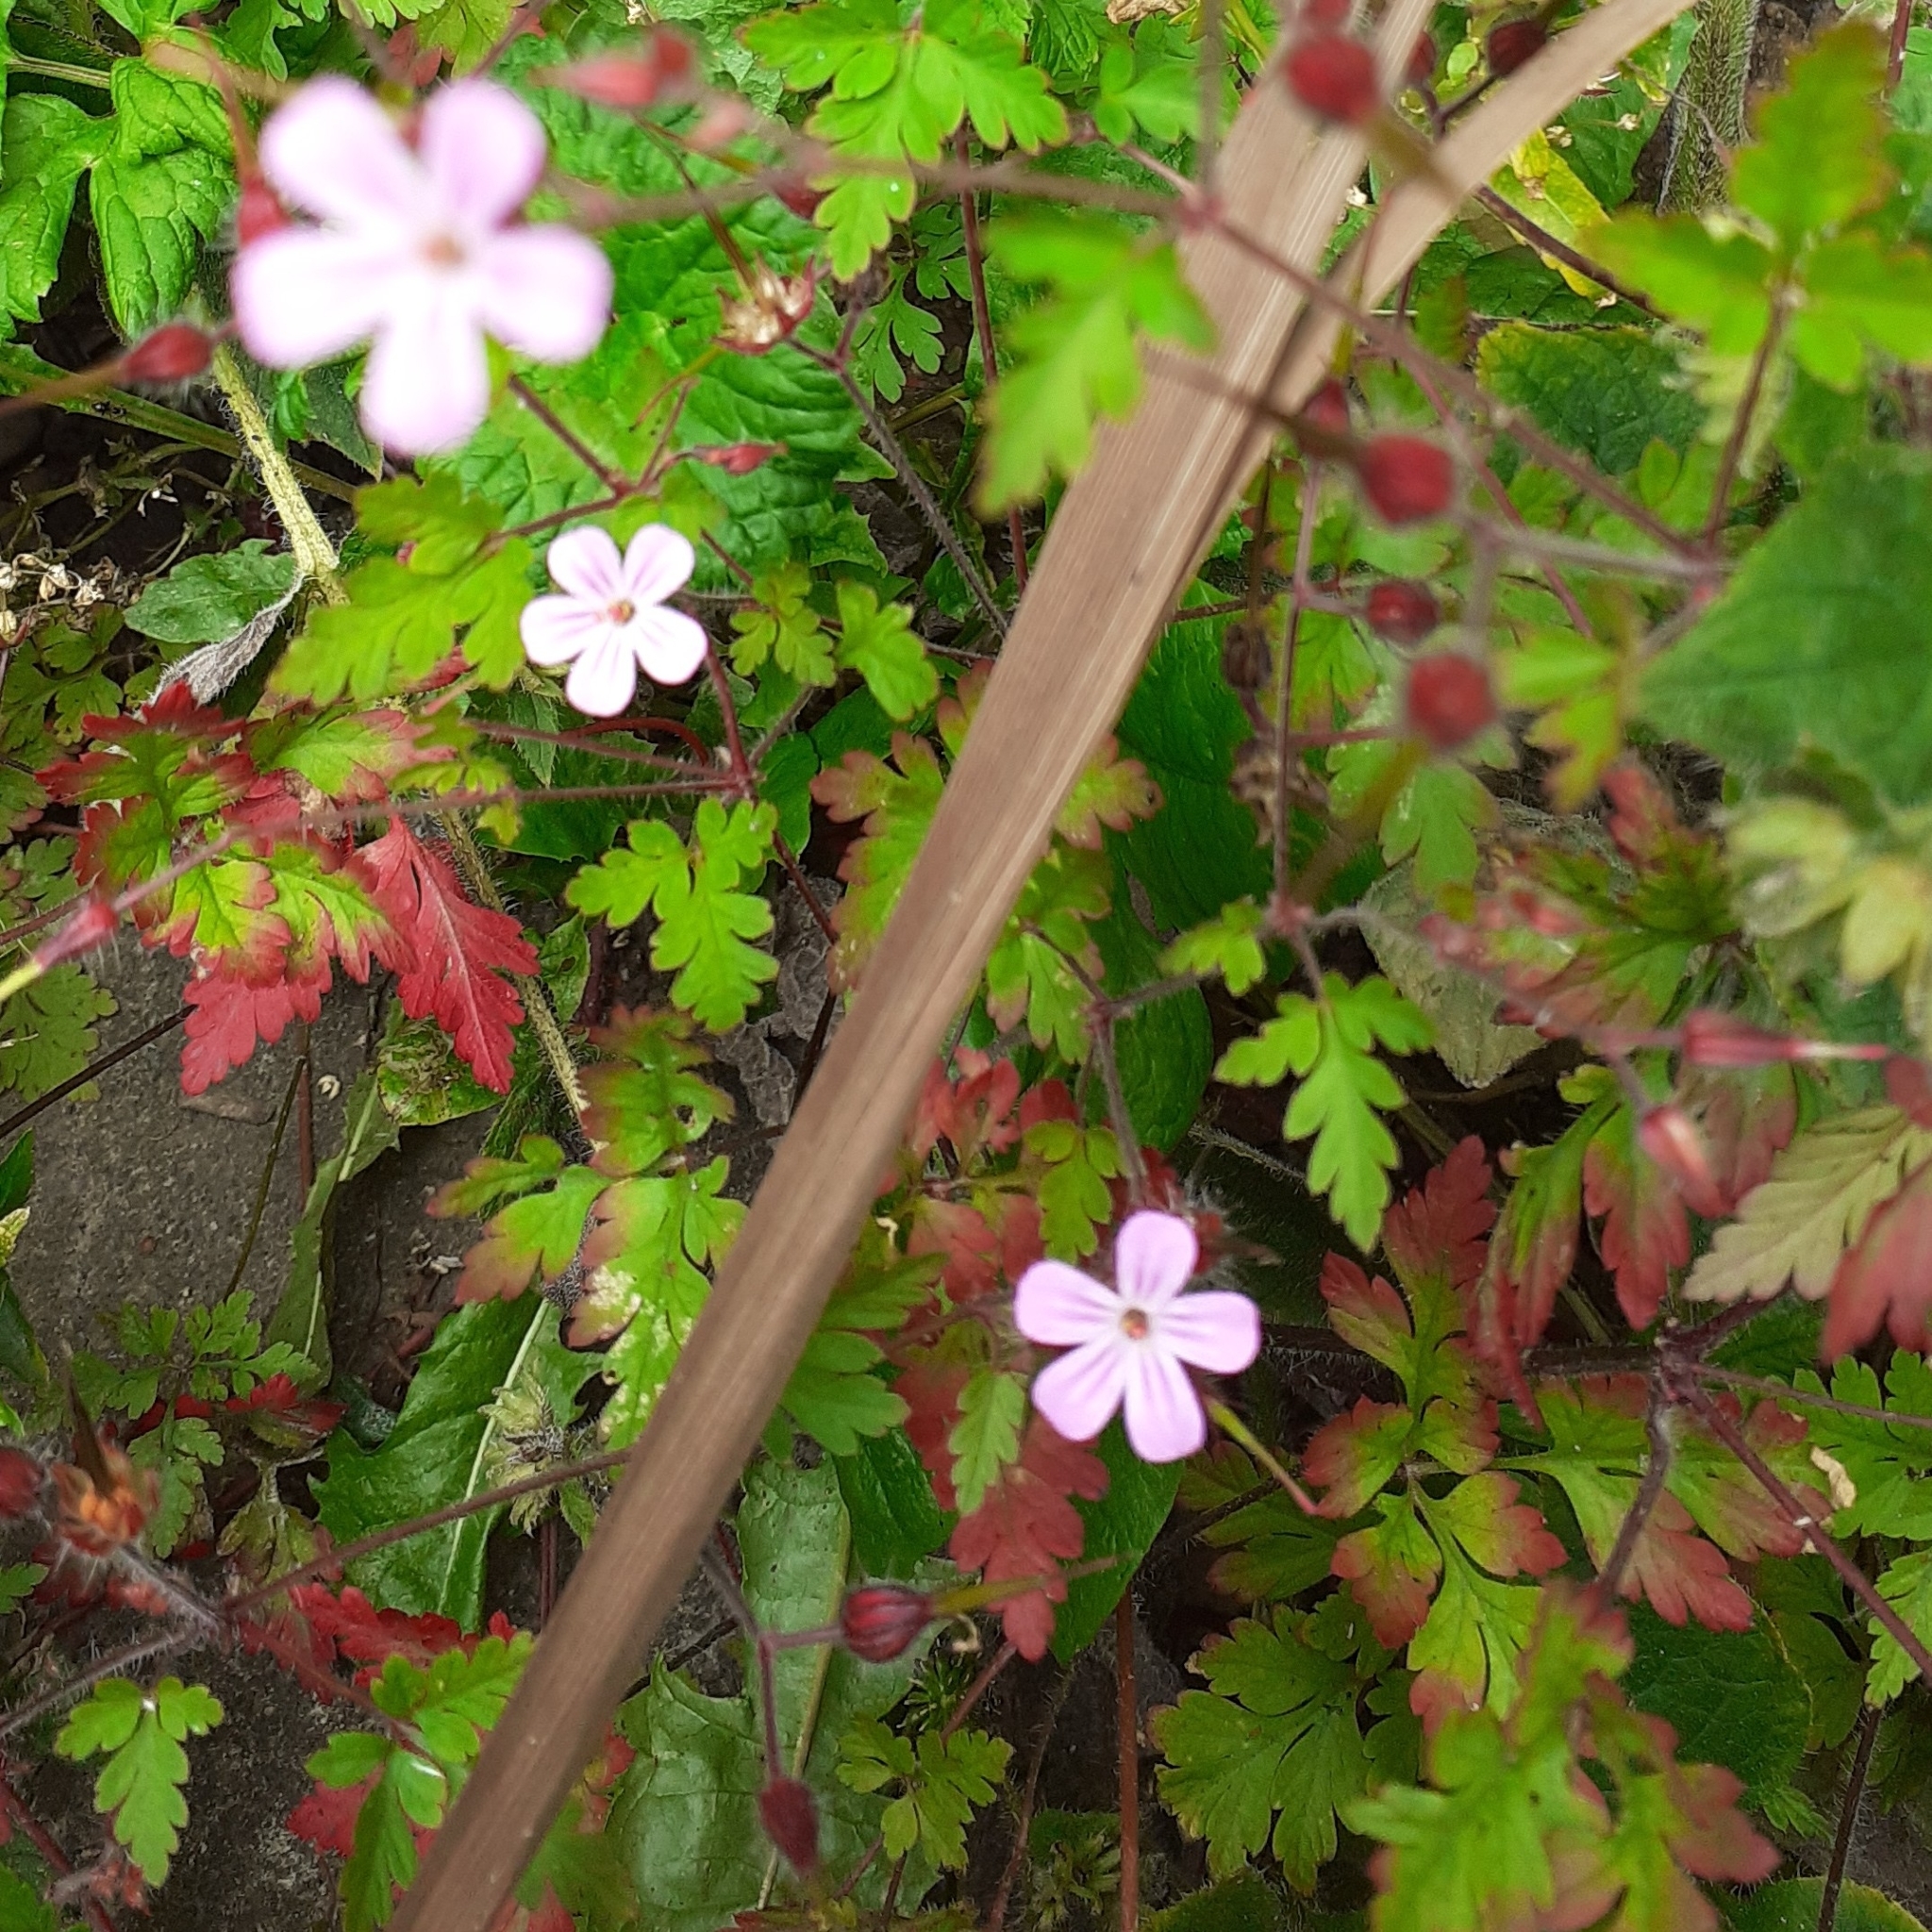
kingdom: Plantae
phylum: Tracheophyta
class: Magnoliopsida
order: Geraniales
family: Geraniaceae
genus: Geranium
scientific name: Geranium robertianum
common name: Herb-robert
